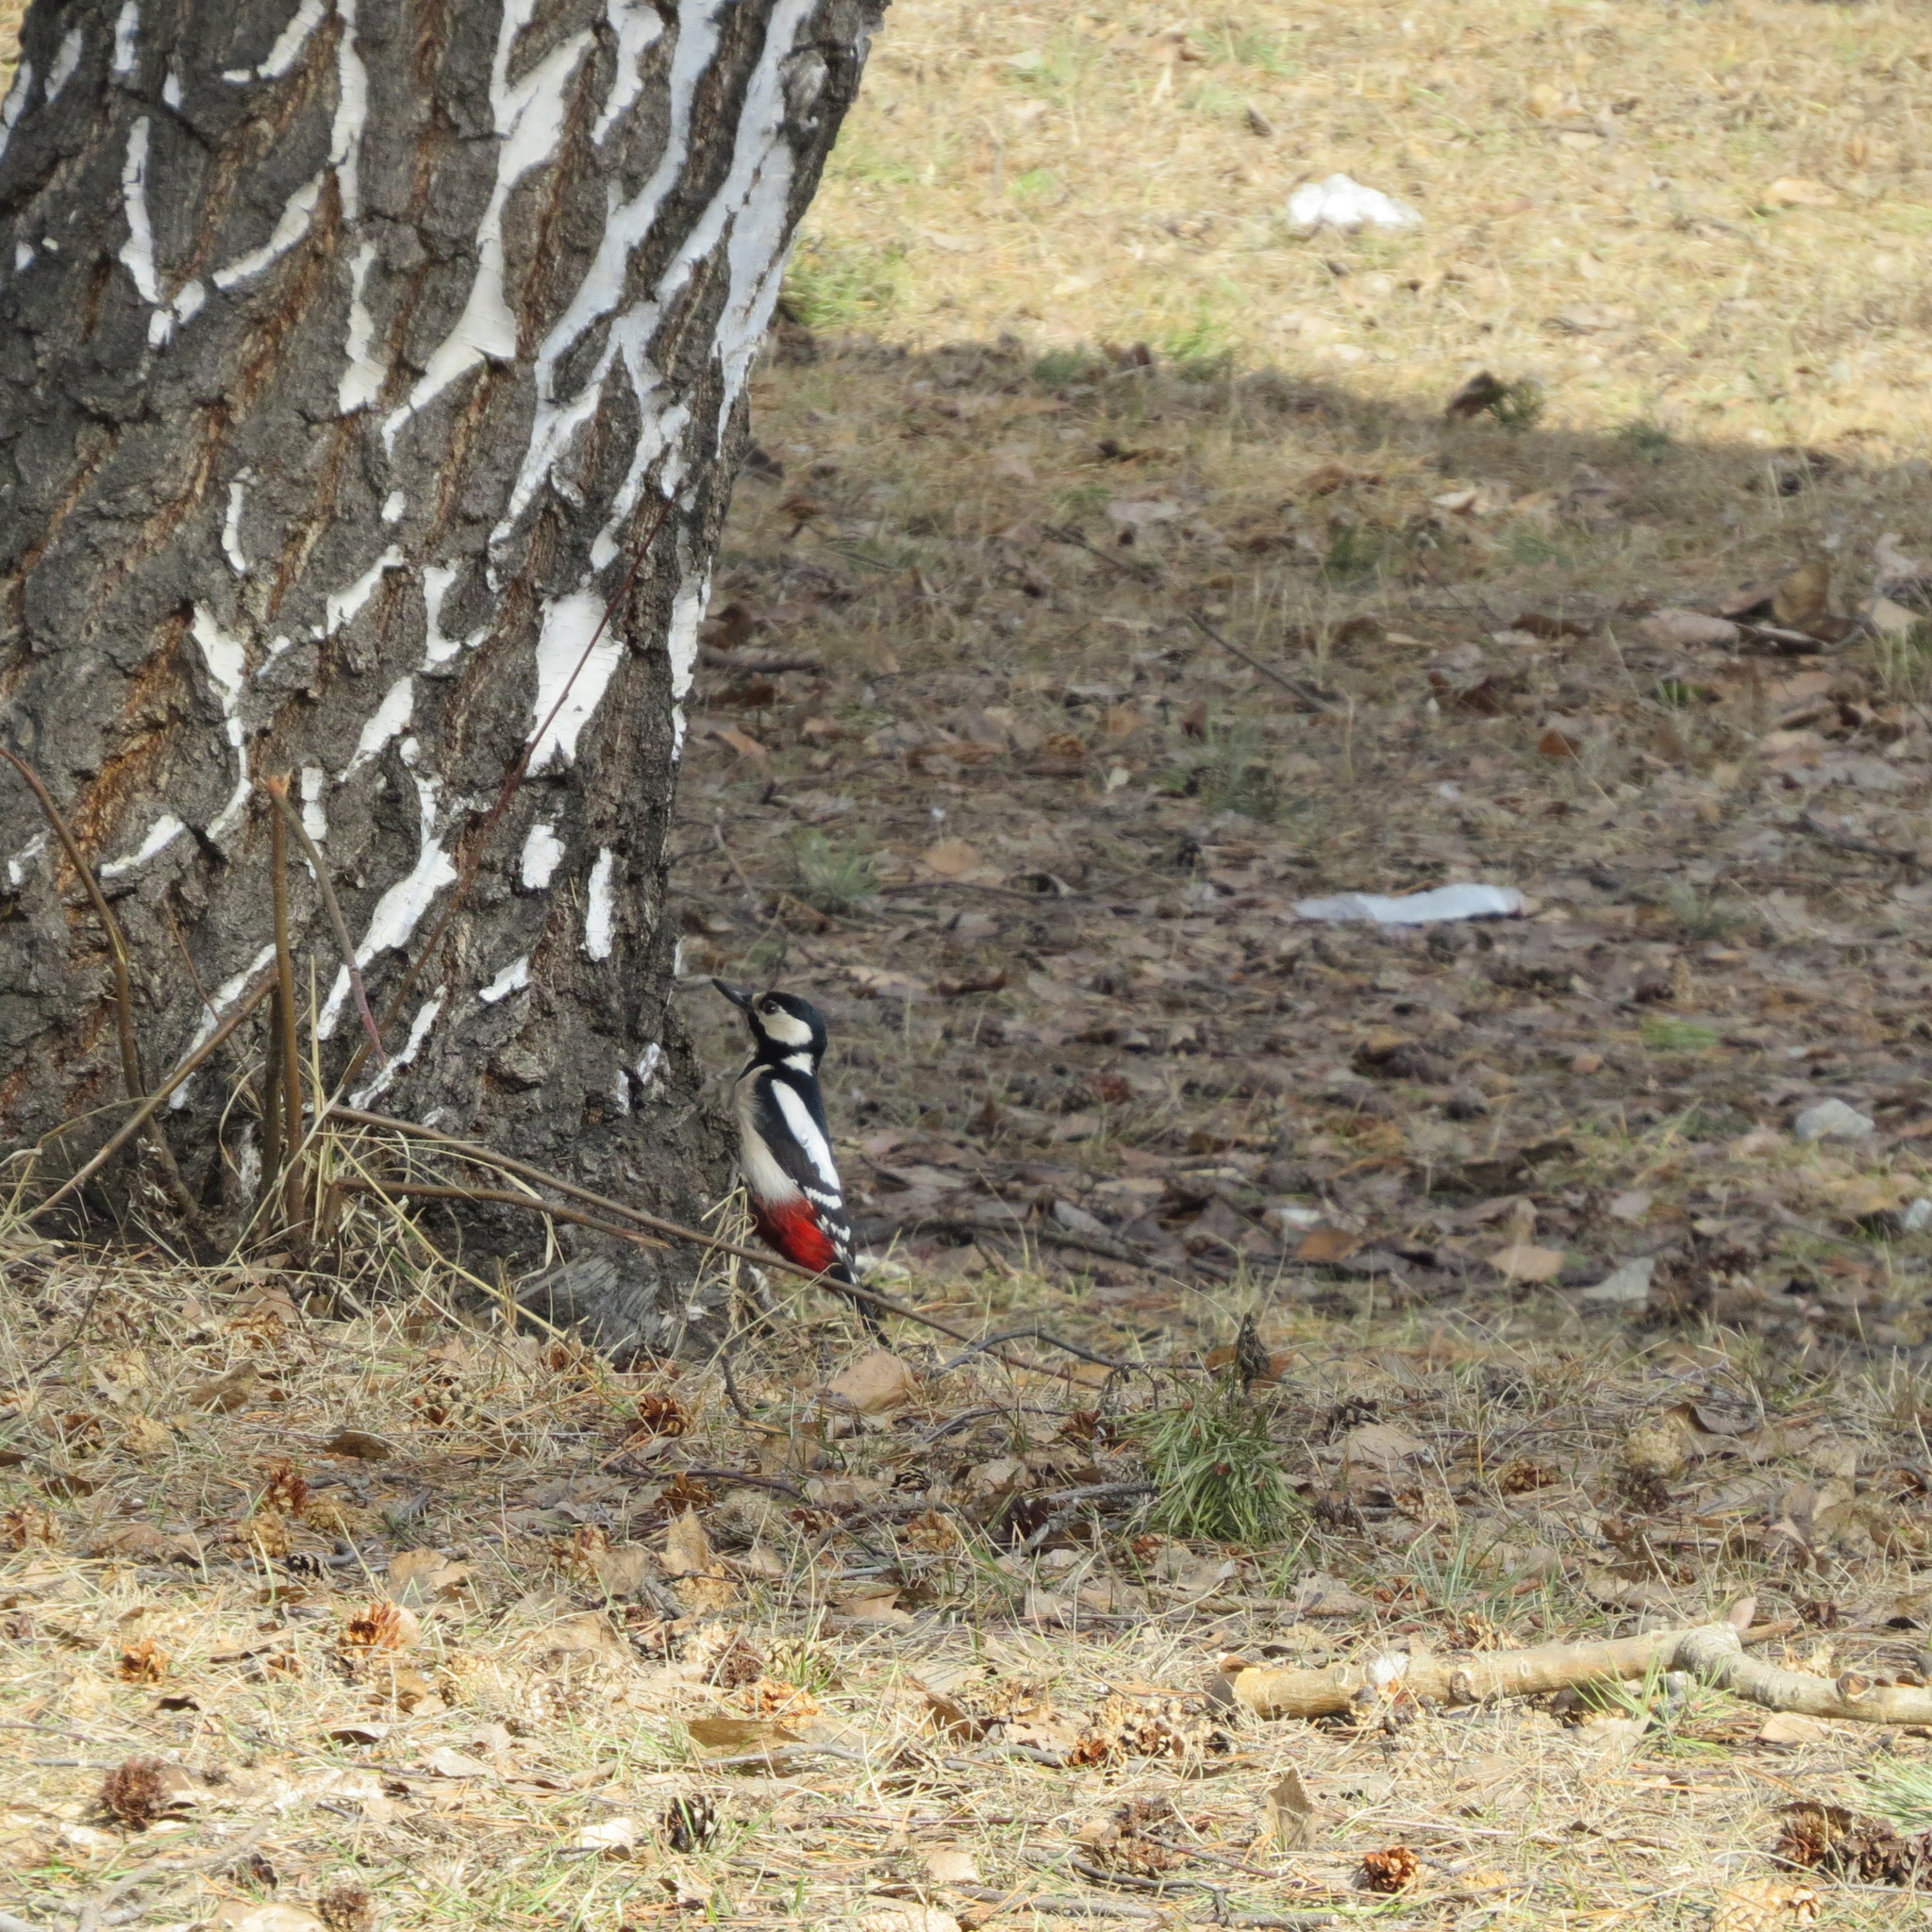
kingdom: Animalia
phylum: Chordata
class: Aves
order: Piciformes
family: Picidae
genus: Dendrocopos
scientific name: Dendrocopos major
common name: Great spotted woodpecker
